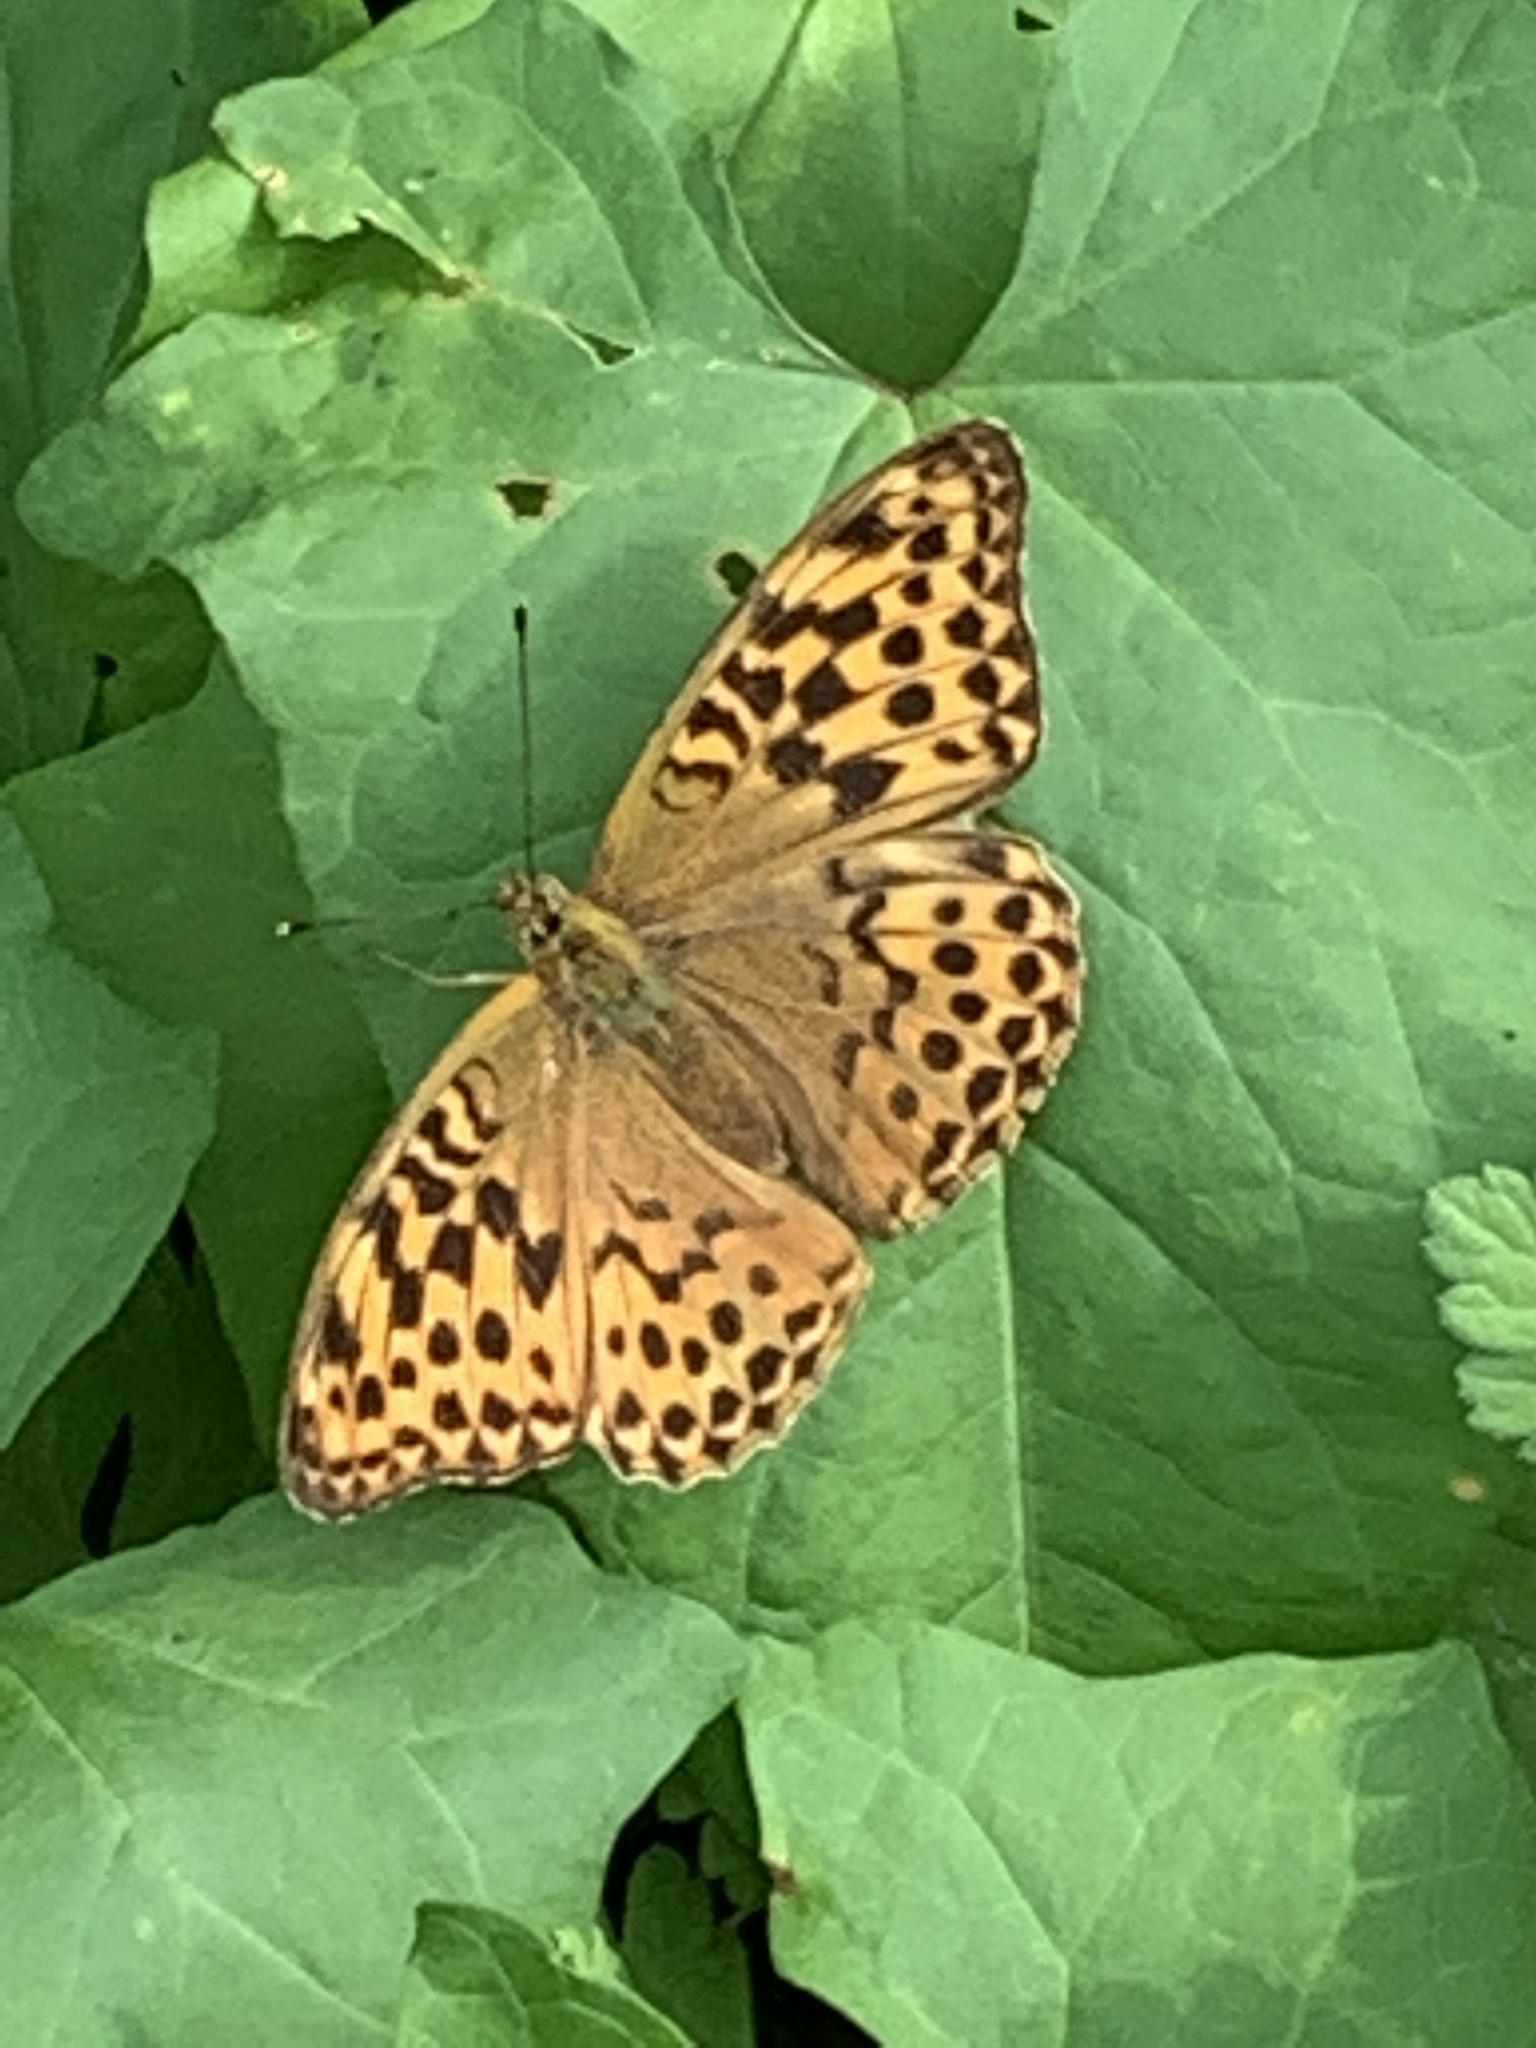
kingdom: Animalia
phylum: Arthropoda
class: Insecta
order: Lepidoptera
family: Nymphalidae
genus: Argynnis
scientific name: Argynnis paphia
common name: Silver-washed fritillary
